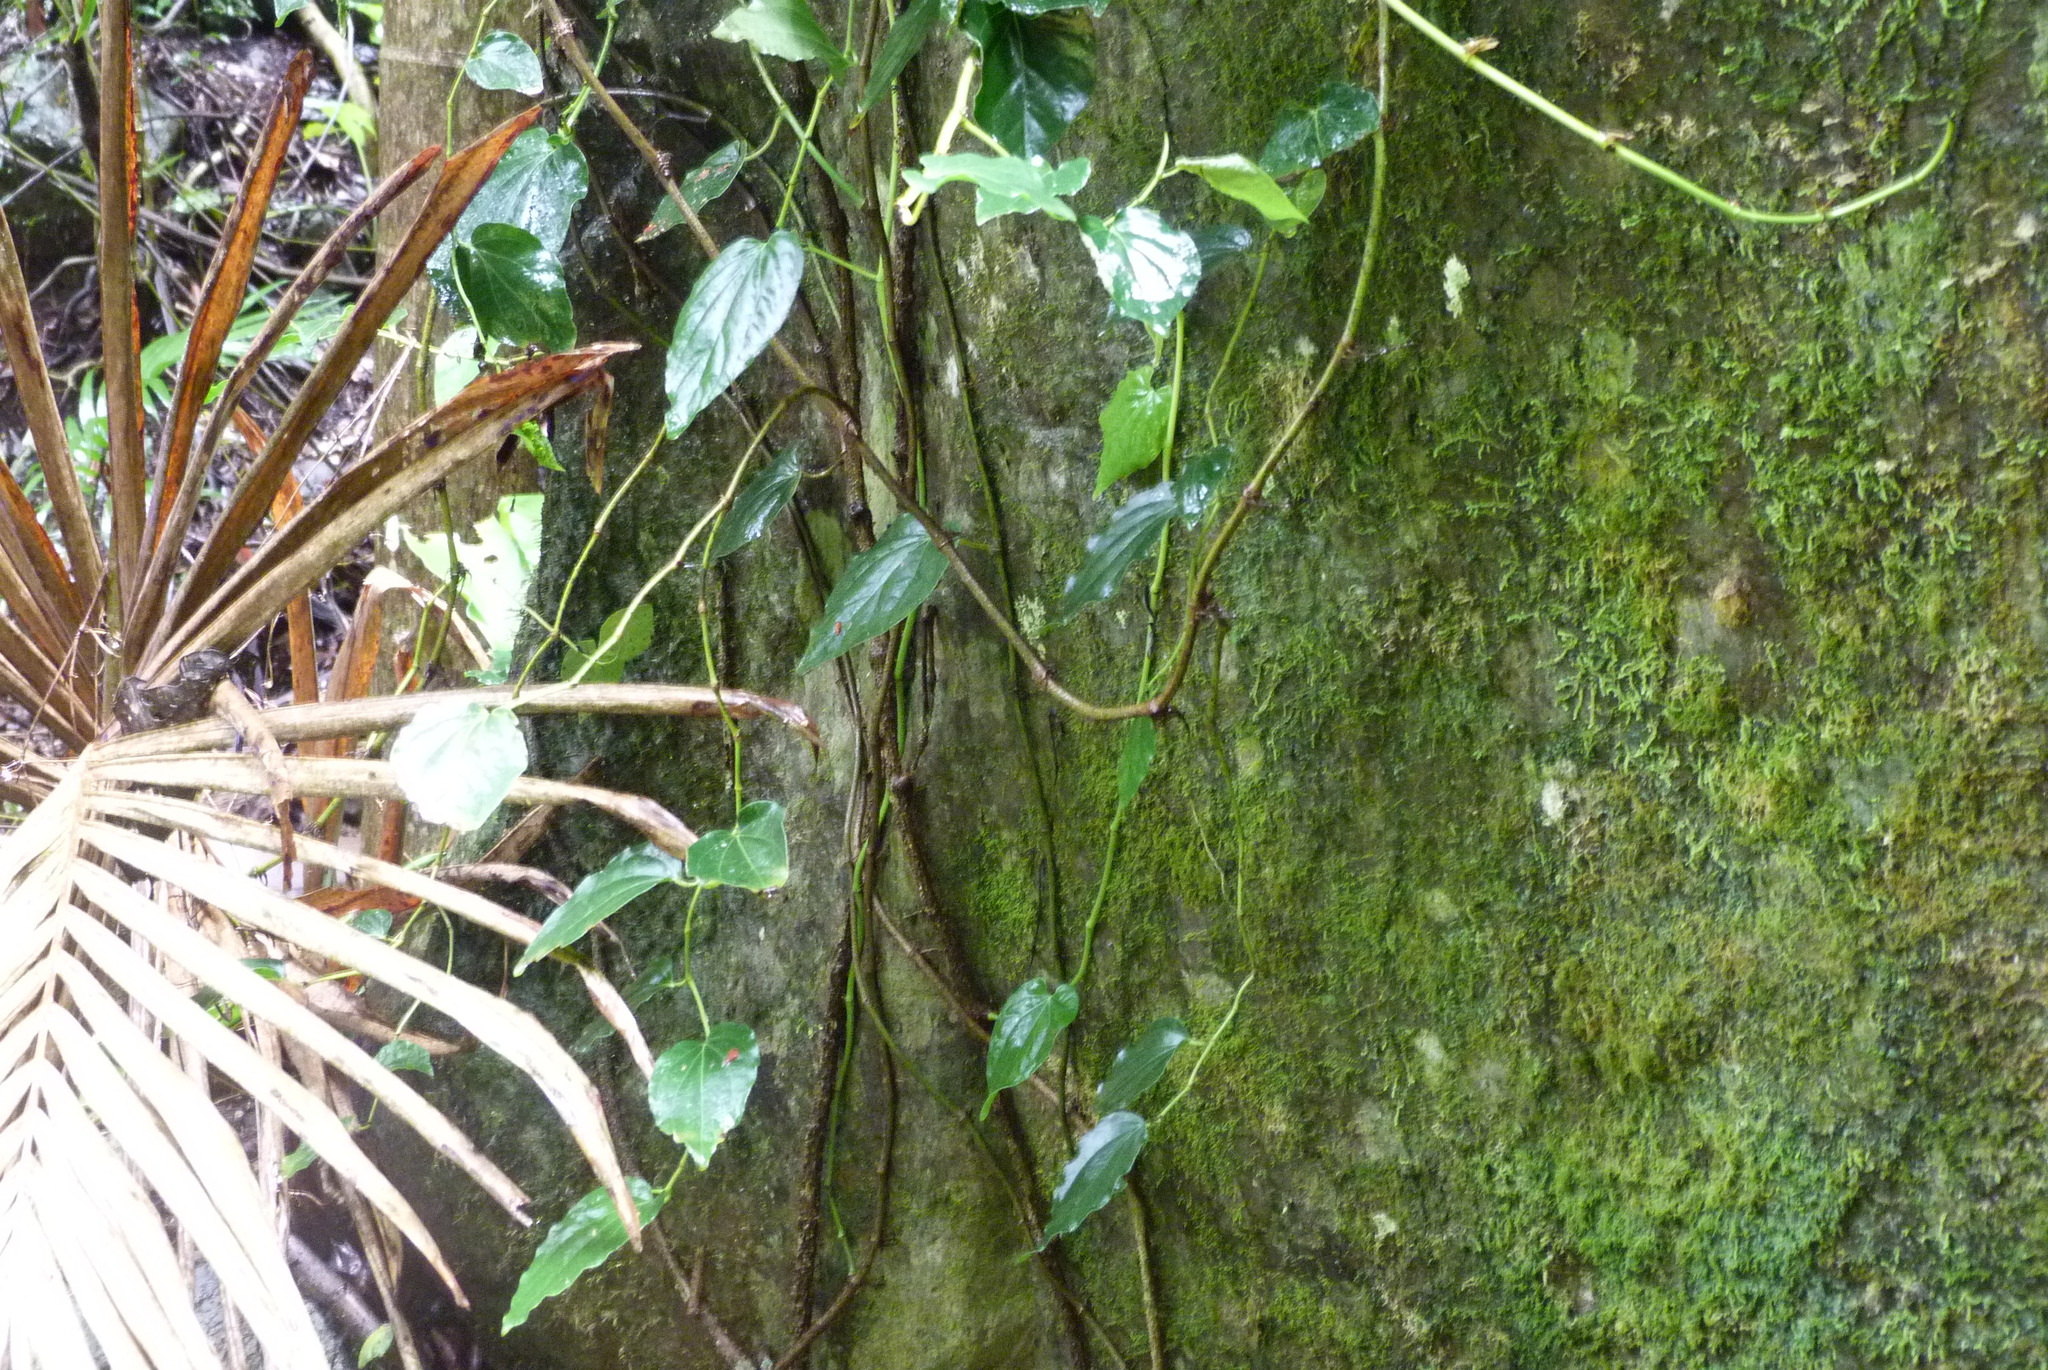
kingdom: Plantae
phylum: Tracheophyta
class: Magnoliopsida
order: Piperales
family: Piperaceae
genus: Piper
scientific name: Piper hederaceum
